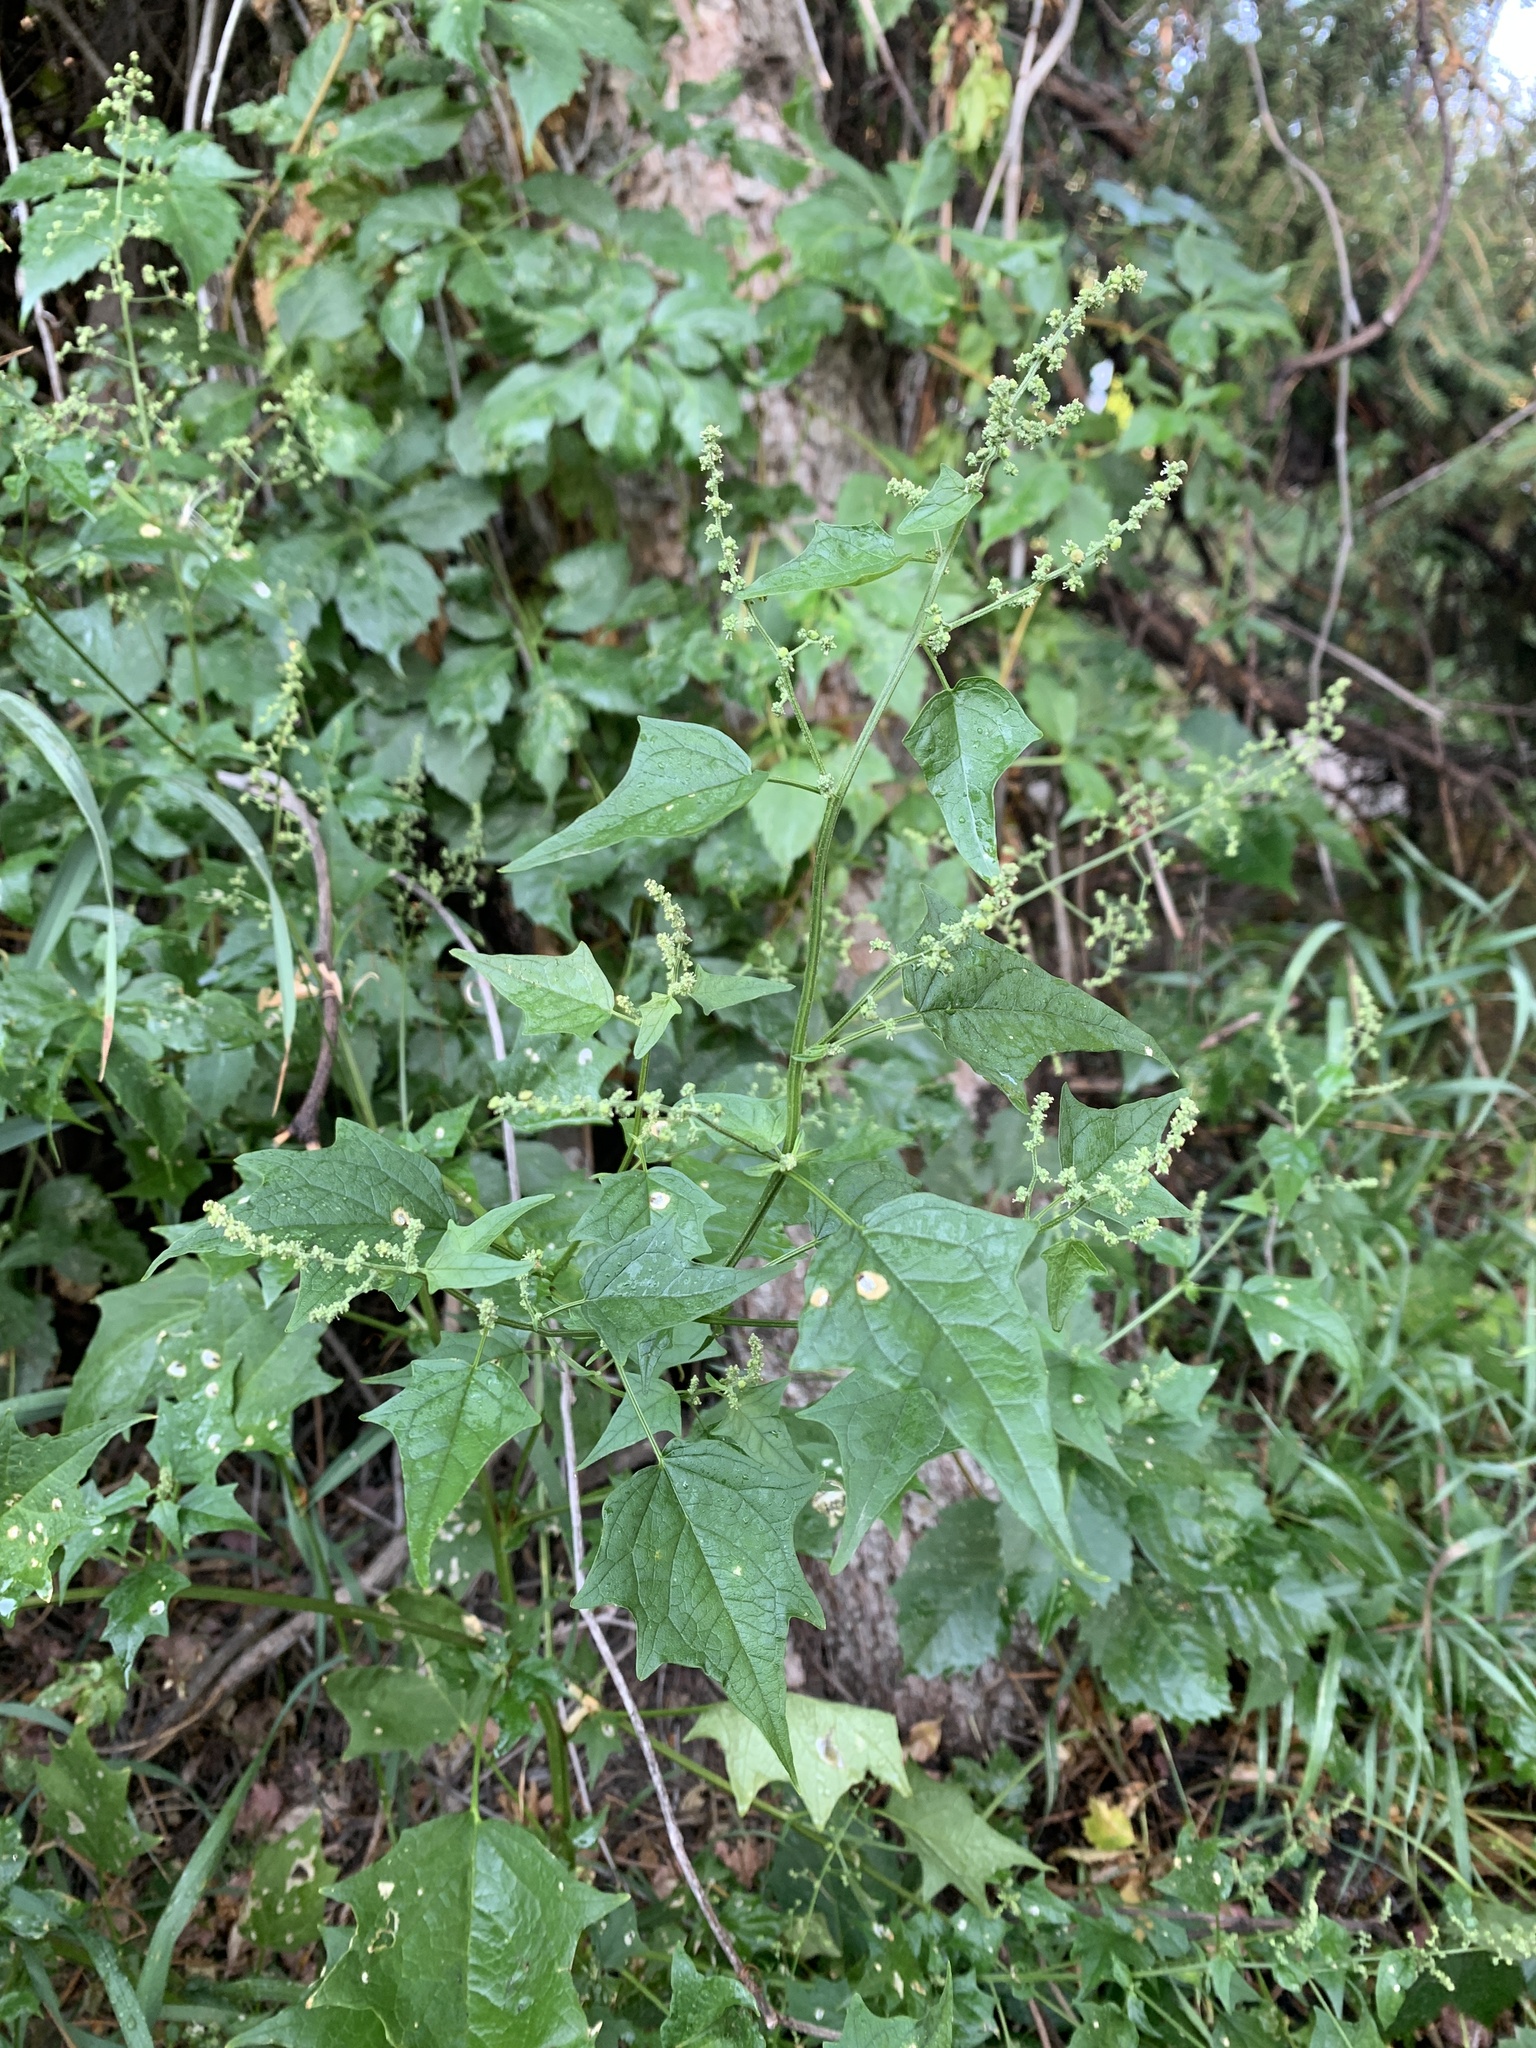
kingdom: Plantae
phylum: Tracheophyta
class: Magnoliopsida
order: Caryophyllales
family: Amaranthaceae
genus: Chenopodiastrum
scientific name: Chenopodiastrum simplex
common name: Large-seed goosefoot
